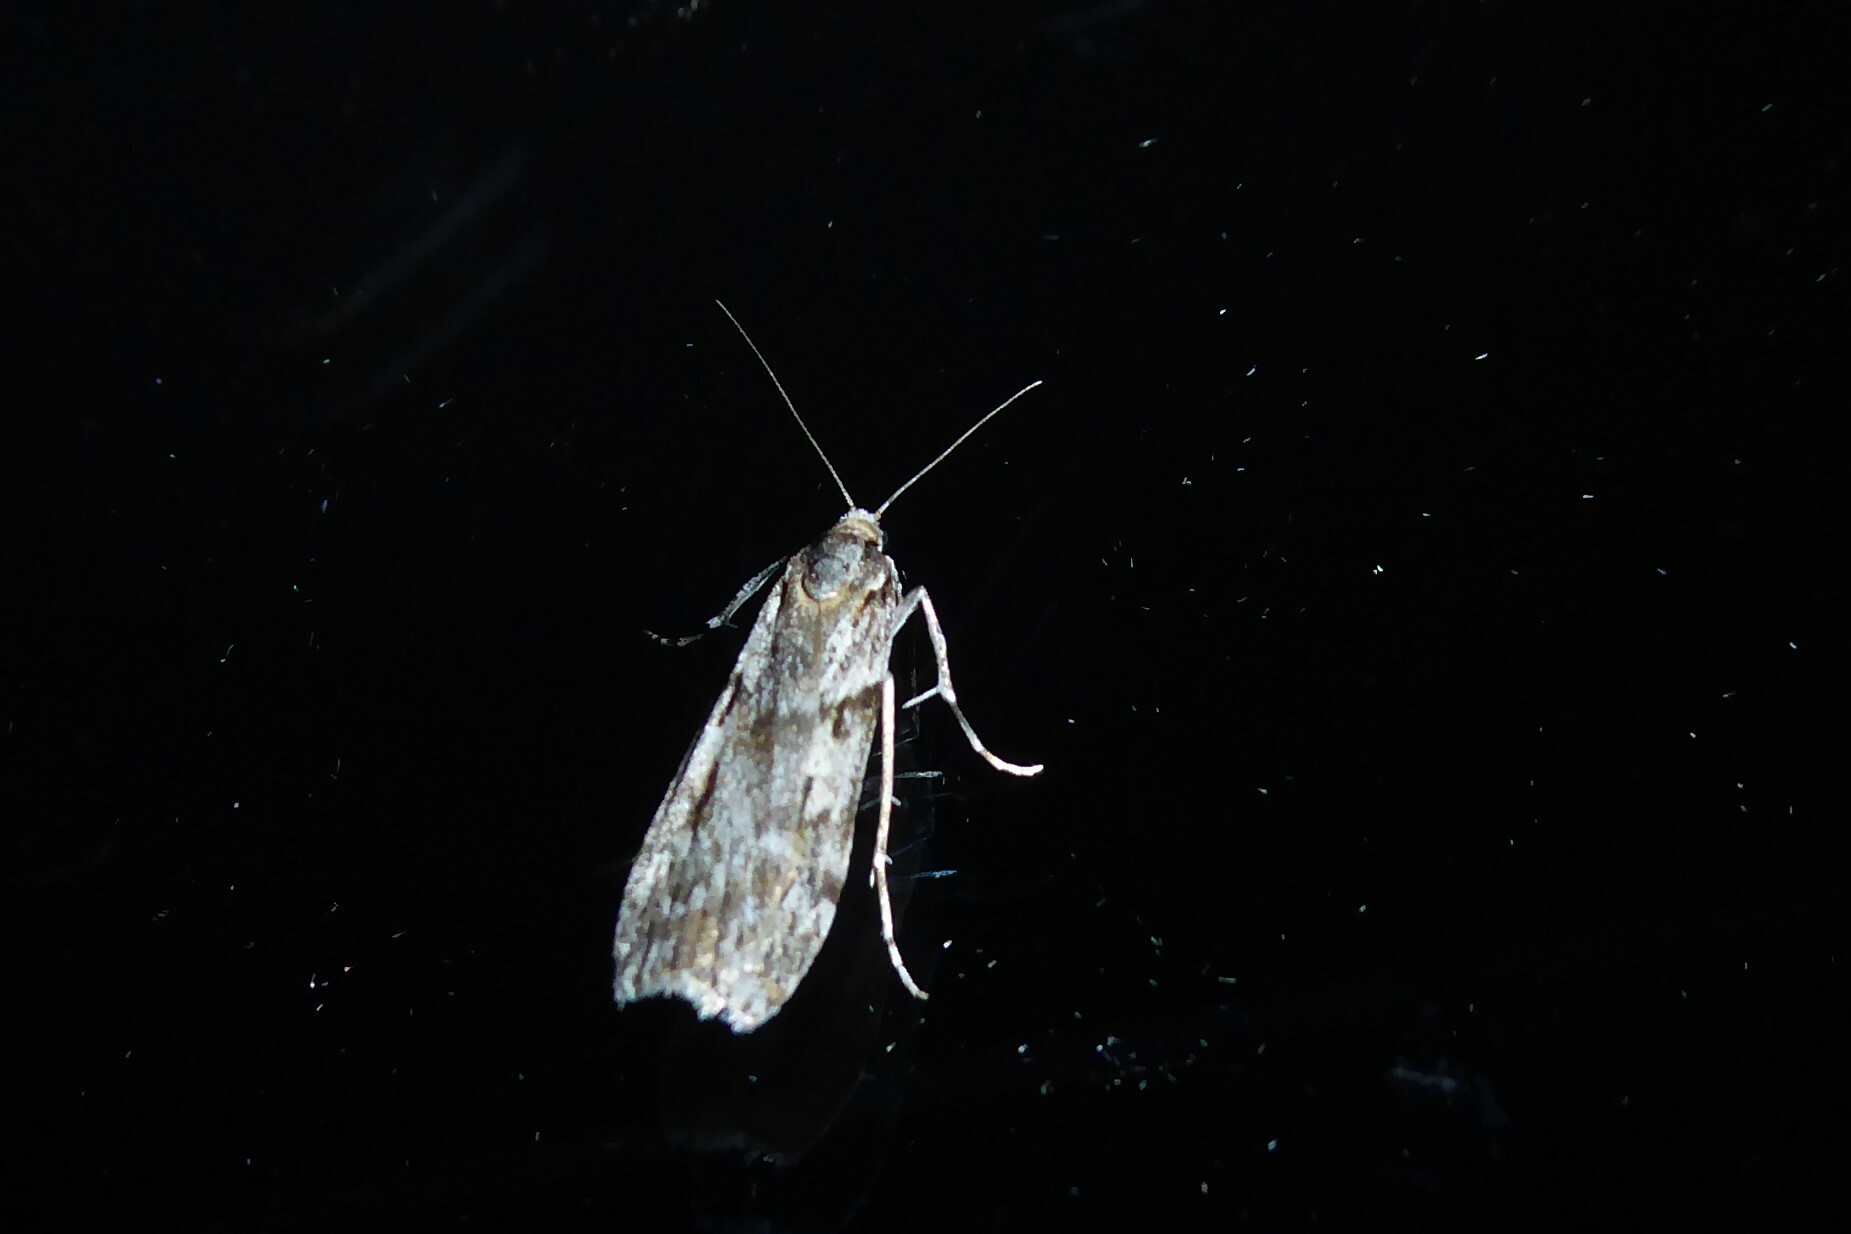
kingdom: Animalia
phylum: Arthropoda
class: Insecta
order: Lepidoptera
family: Crambidae
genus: Scoparia
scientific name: Scoparia halopis
